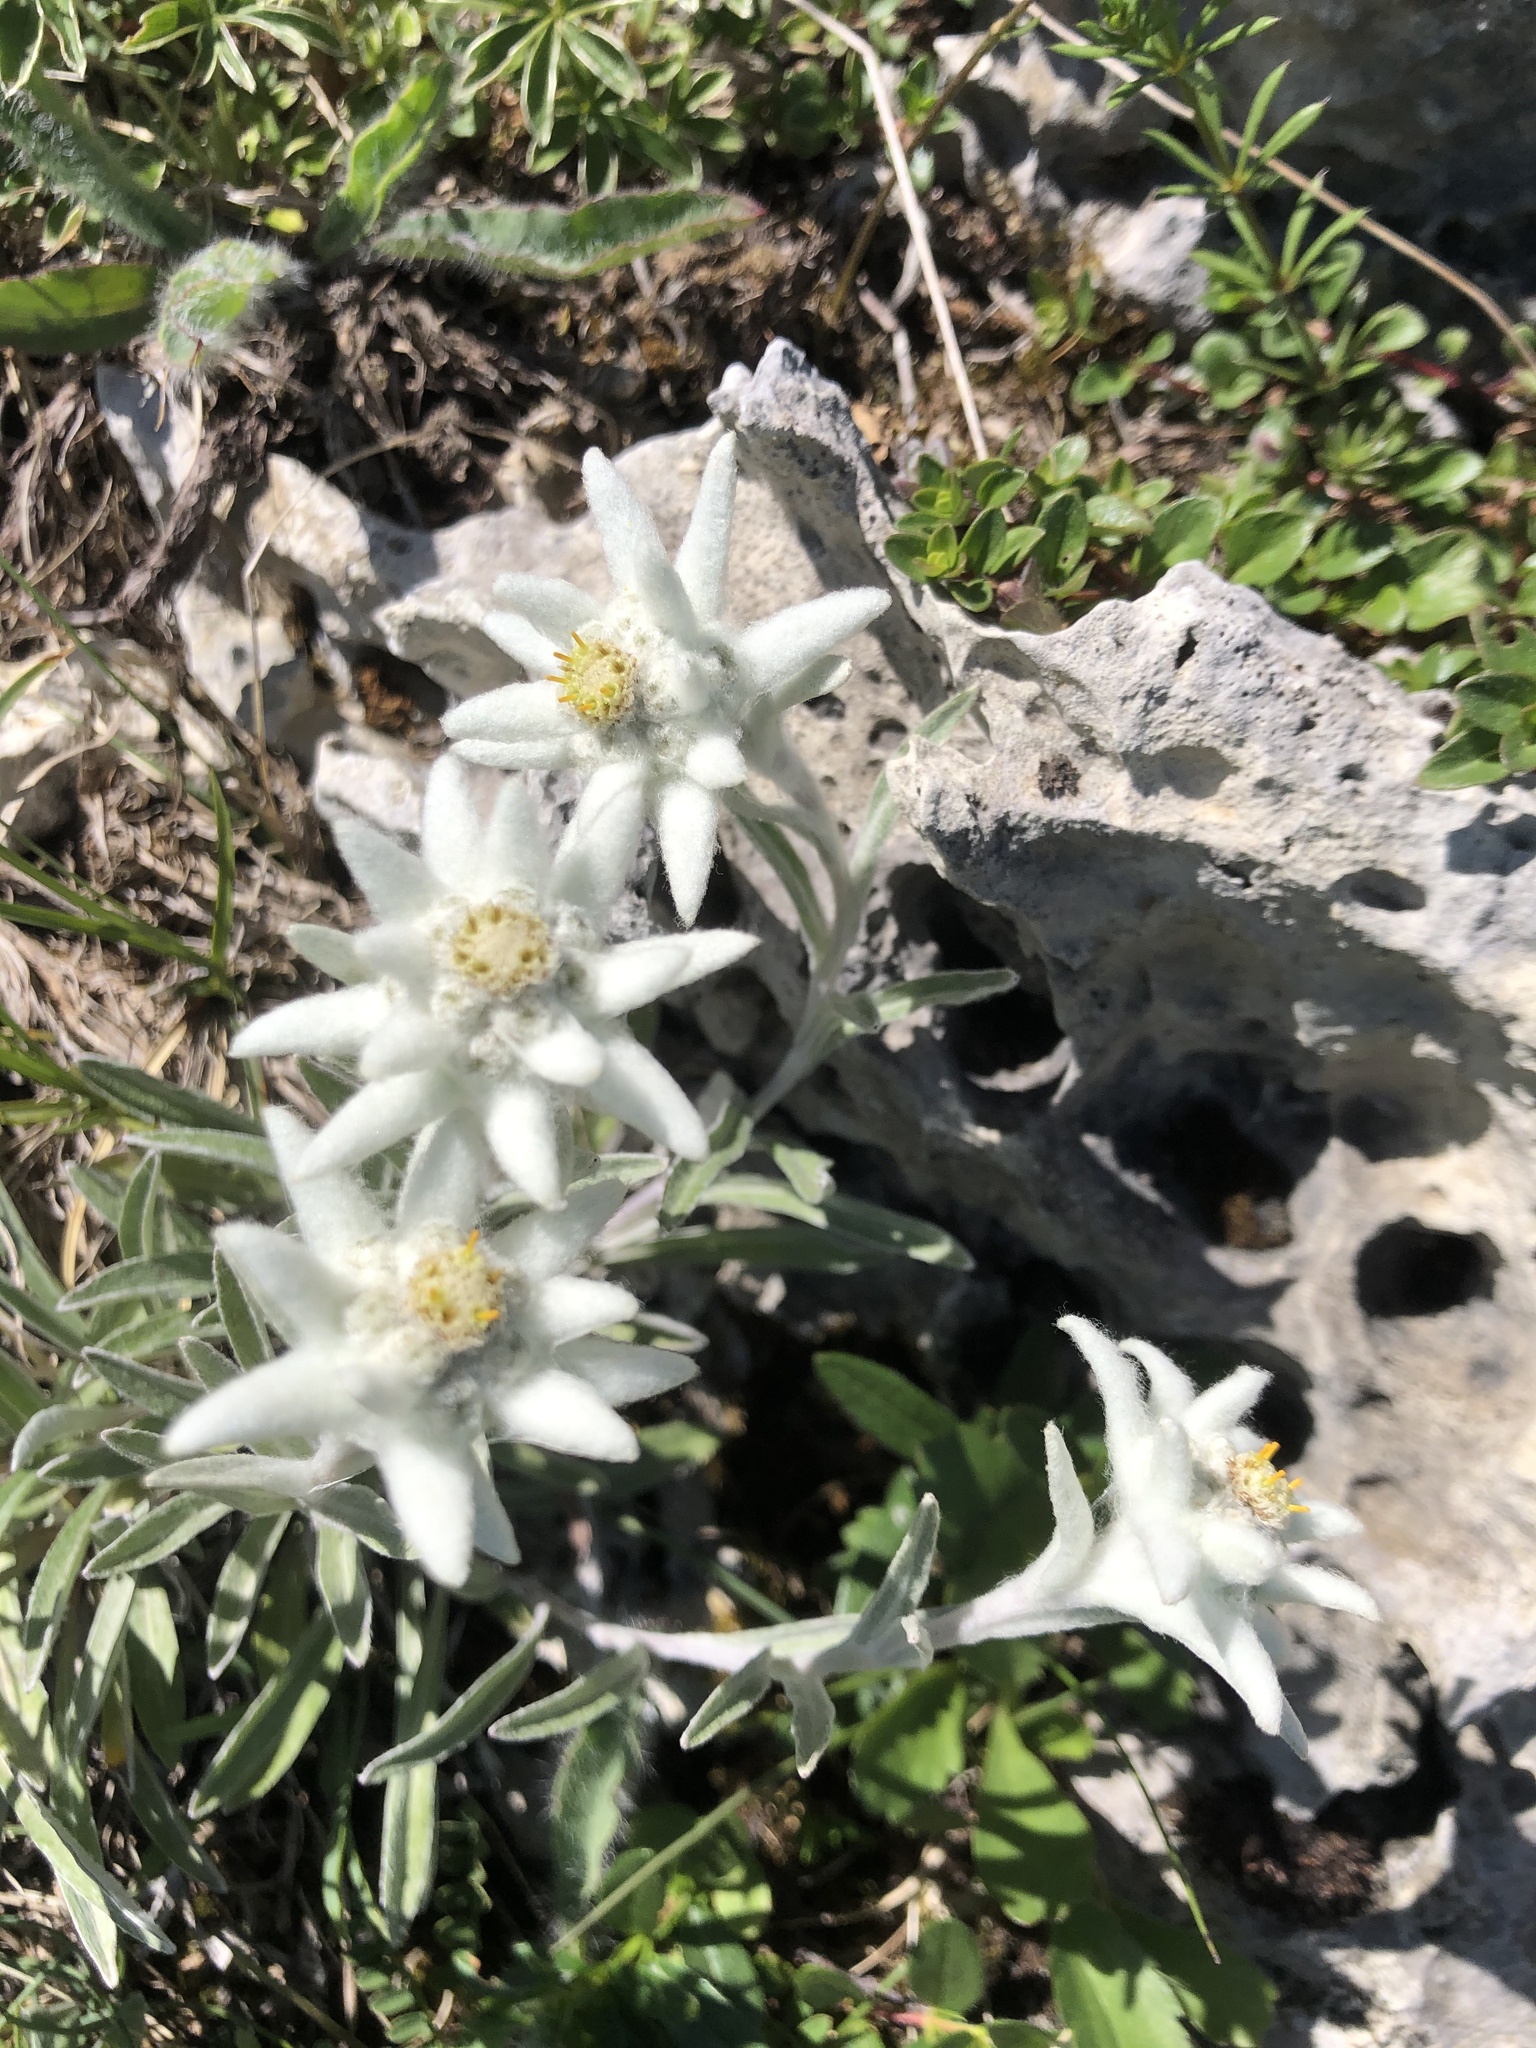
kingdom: Plantae
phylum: Tracheophyta
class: Magnoliopsida
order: Asterales
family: Asteraceae
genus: Leontopodium
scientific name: Leontopodium nivale
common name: Edelweiss
